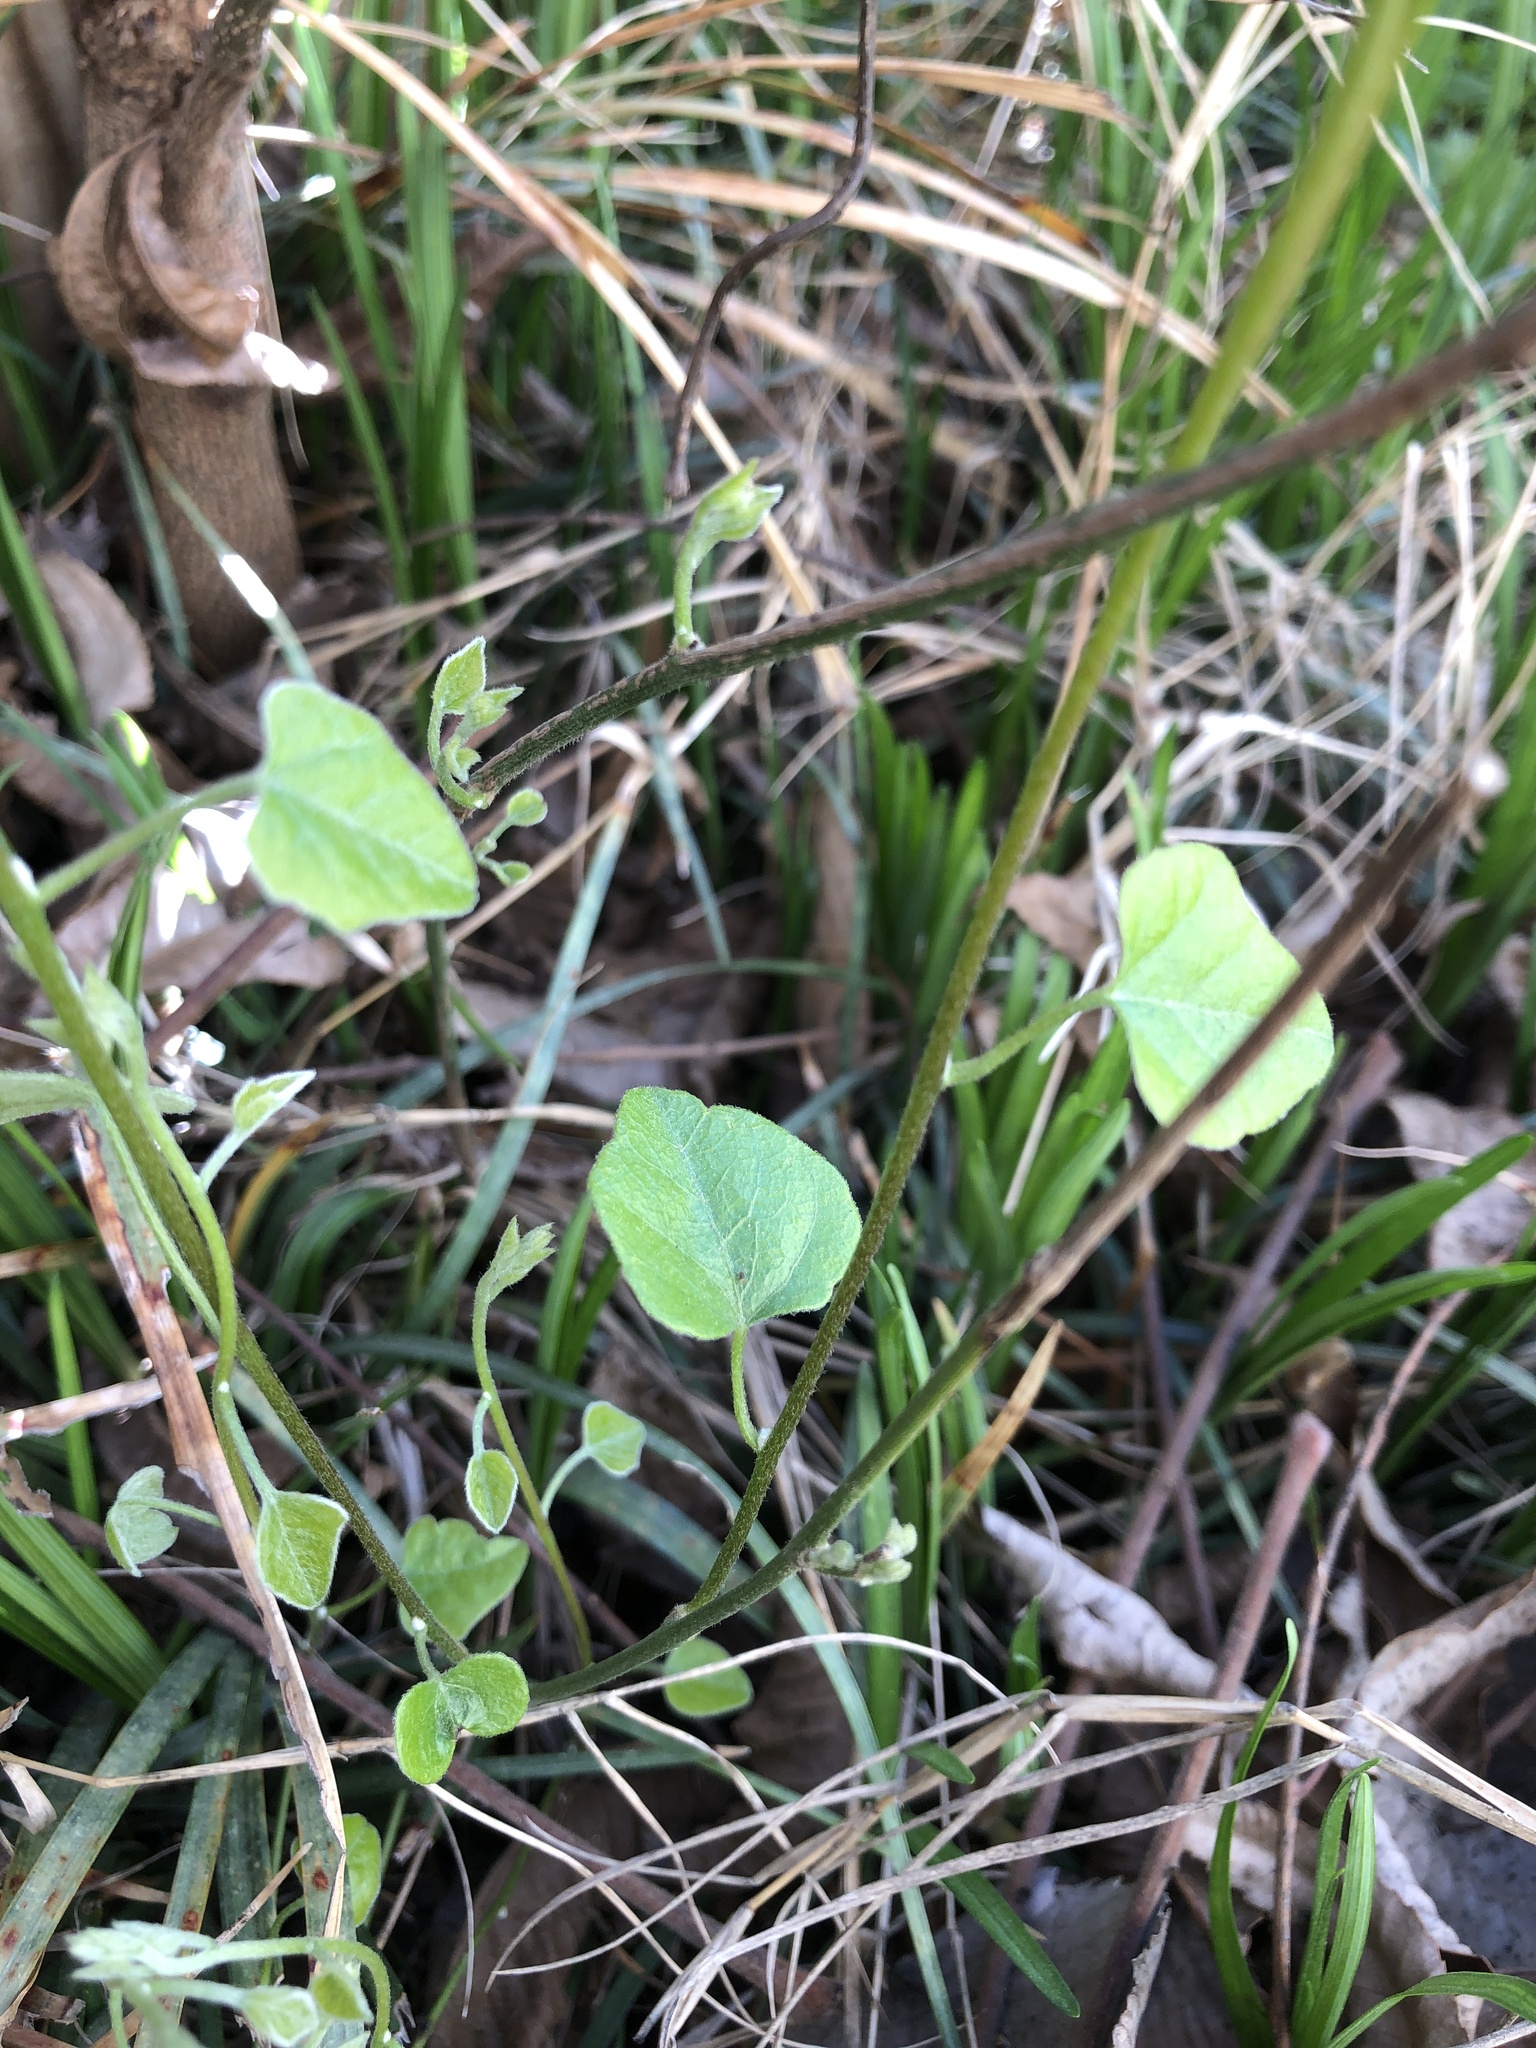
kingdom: Plantae
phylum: Tracheophyta
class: Magnoliopsida
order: Ranunculales
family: Menispermaceae
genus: Cocculus
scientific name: Cocculus carolinus
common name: Carolina moonseed
